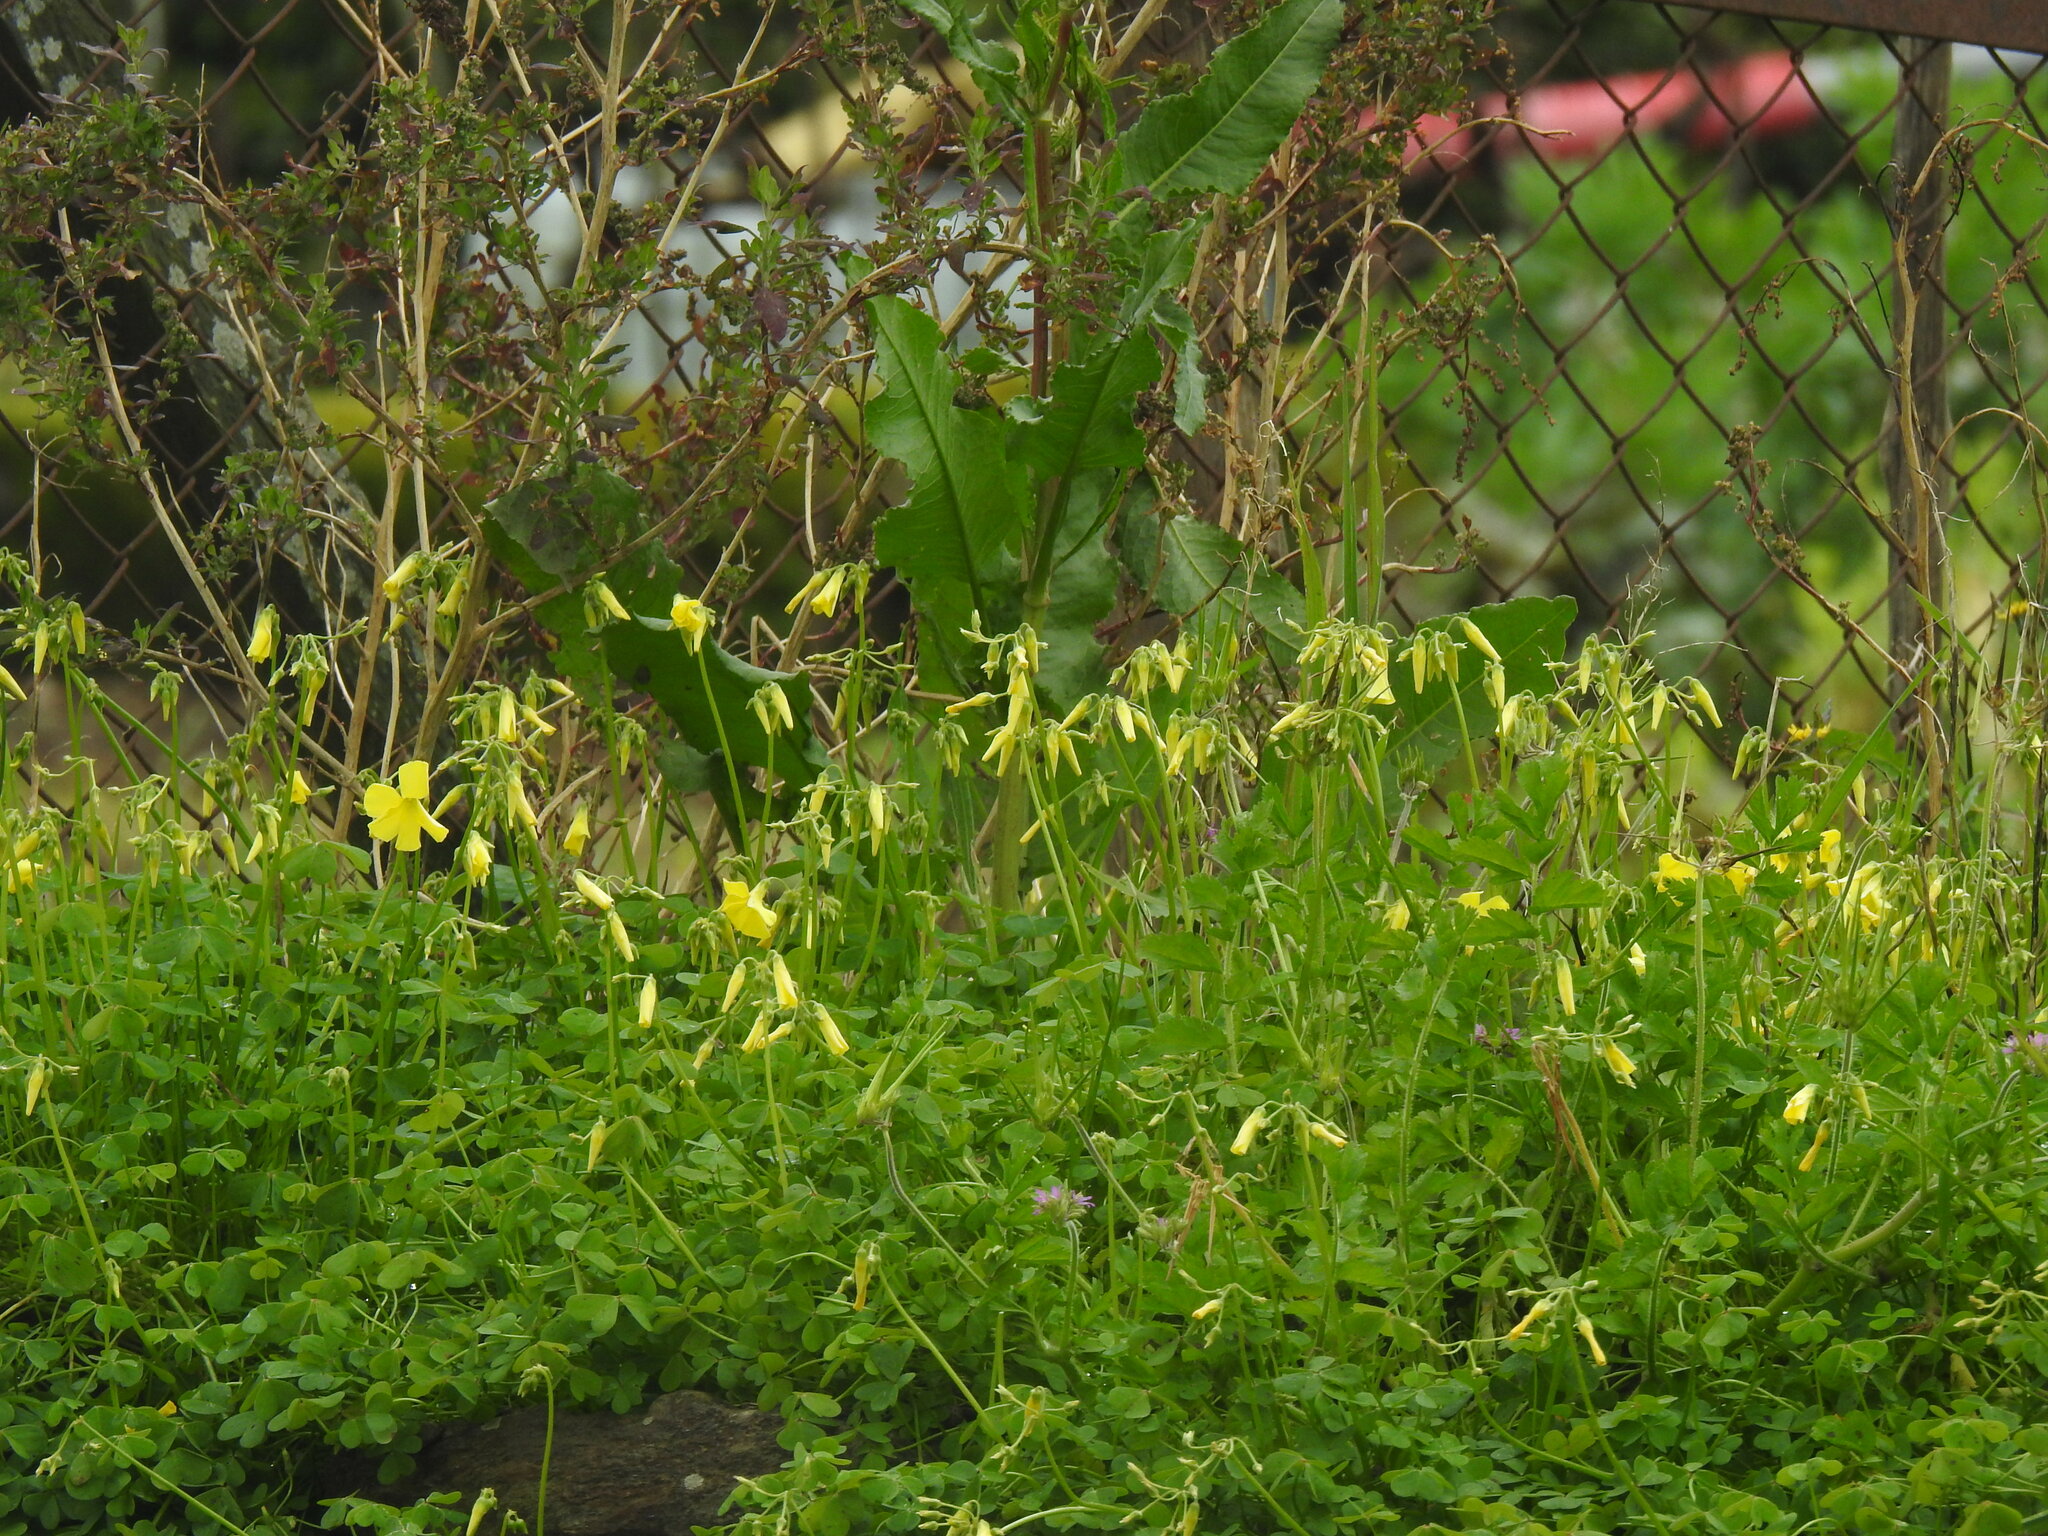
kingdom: Plantae
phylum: Tracheophyta
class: Magnoliopsida
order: Oxalidales
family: Oxalidaceae
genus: Oxalis
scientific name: Oxalis pes-caprae
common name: Bermuda-buttercup
